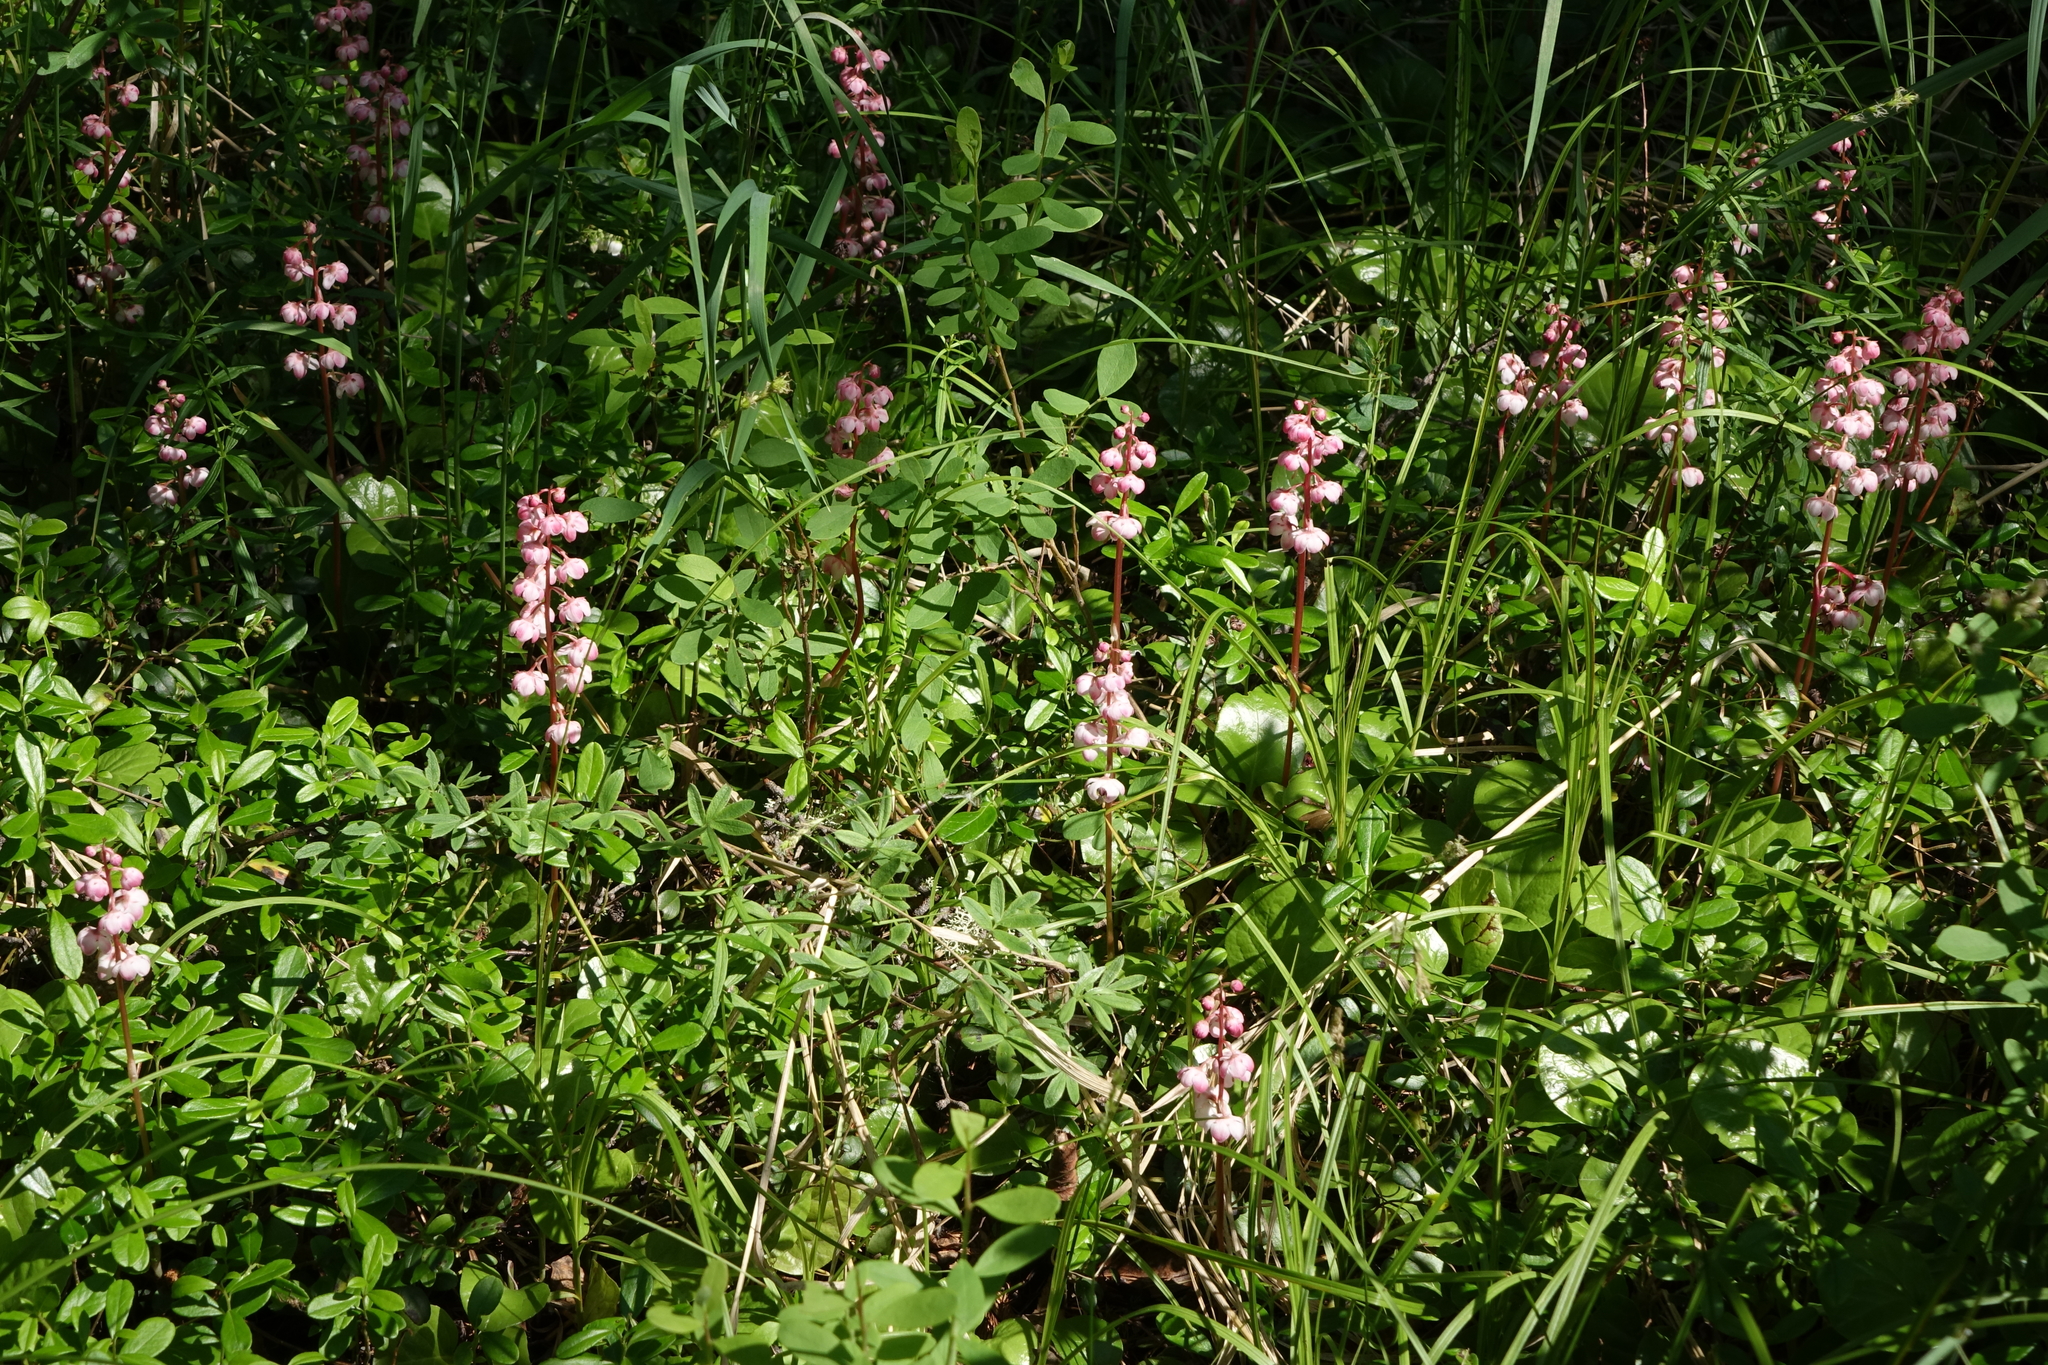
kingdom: Plantae
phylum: Tracheophyta
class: Magnoliopsida
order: Ericales
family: Ericaceae
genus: Pyrola
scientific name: Pyrola asarifolia
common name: Bog wintergreen
